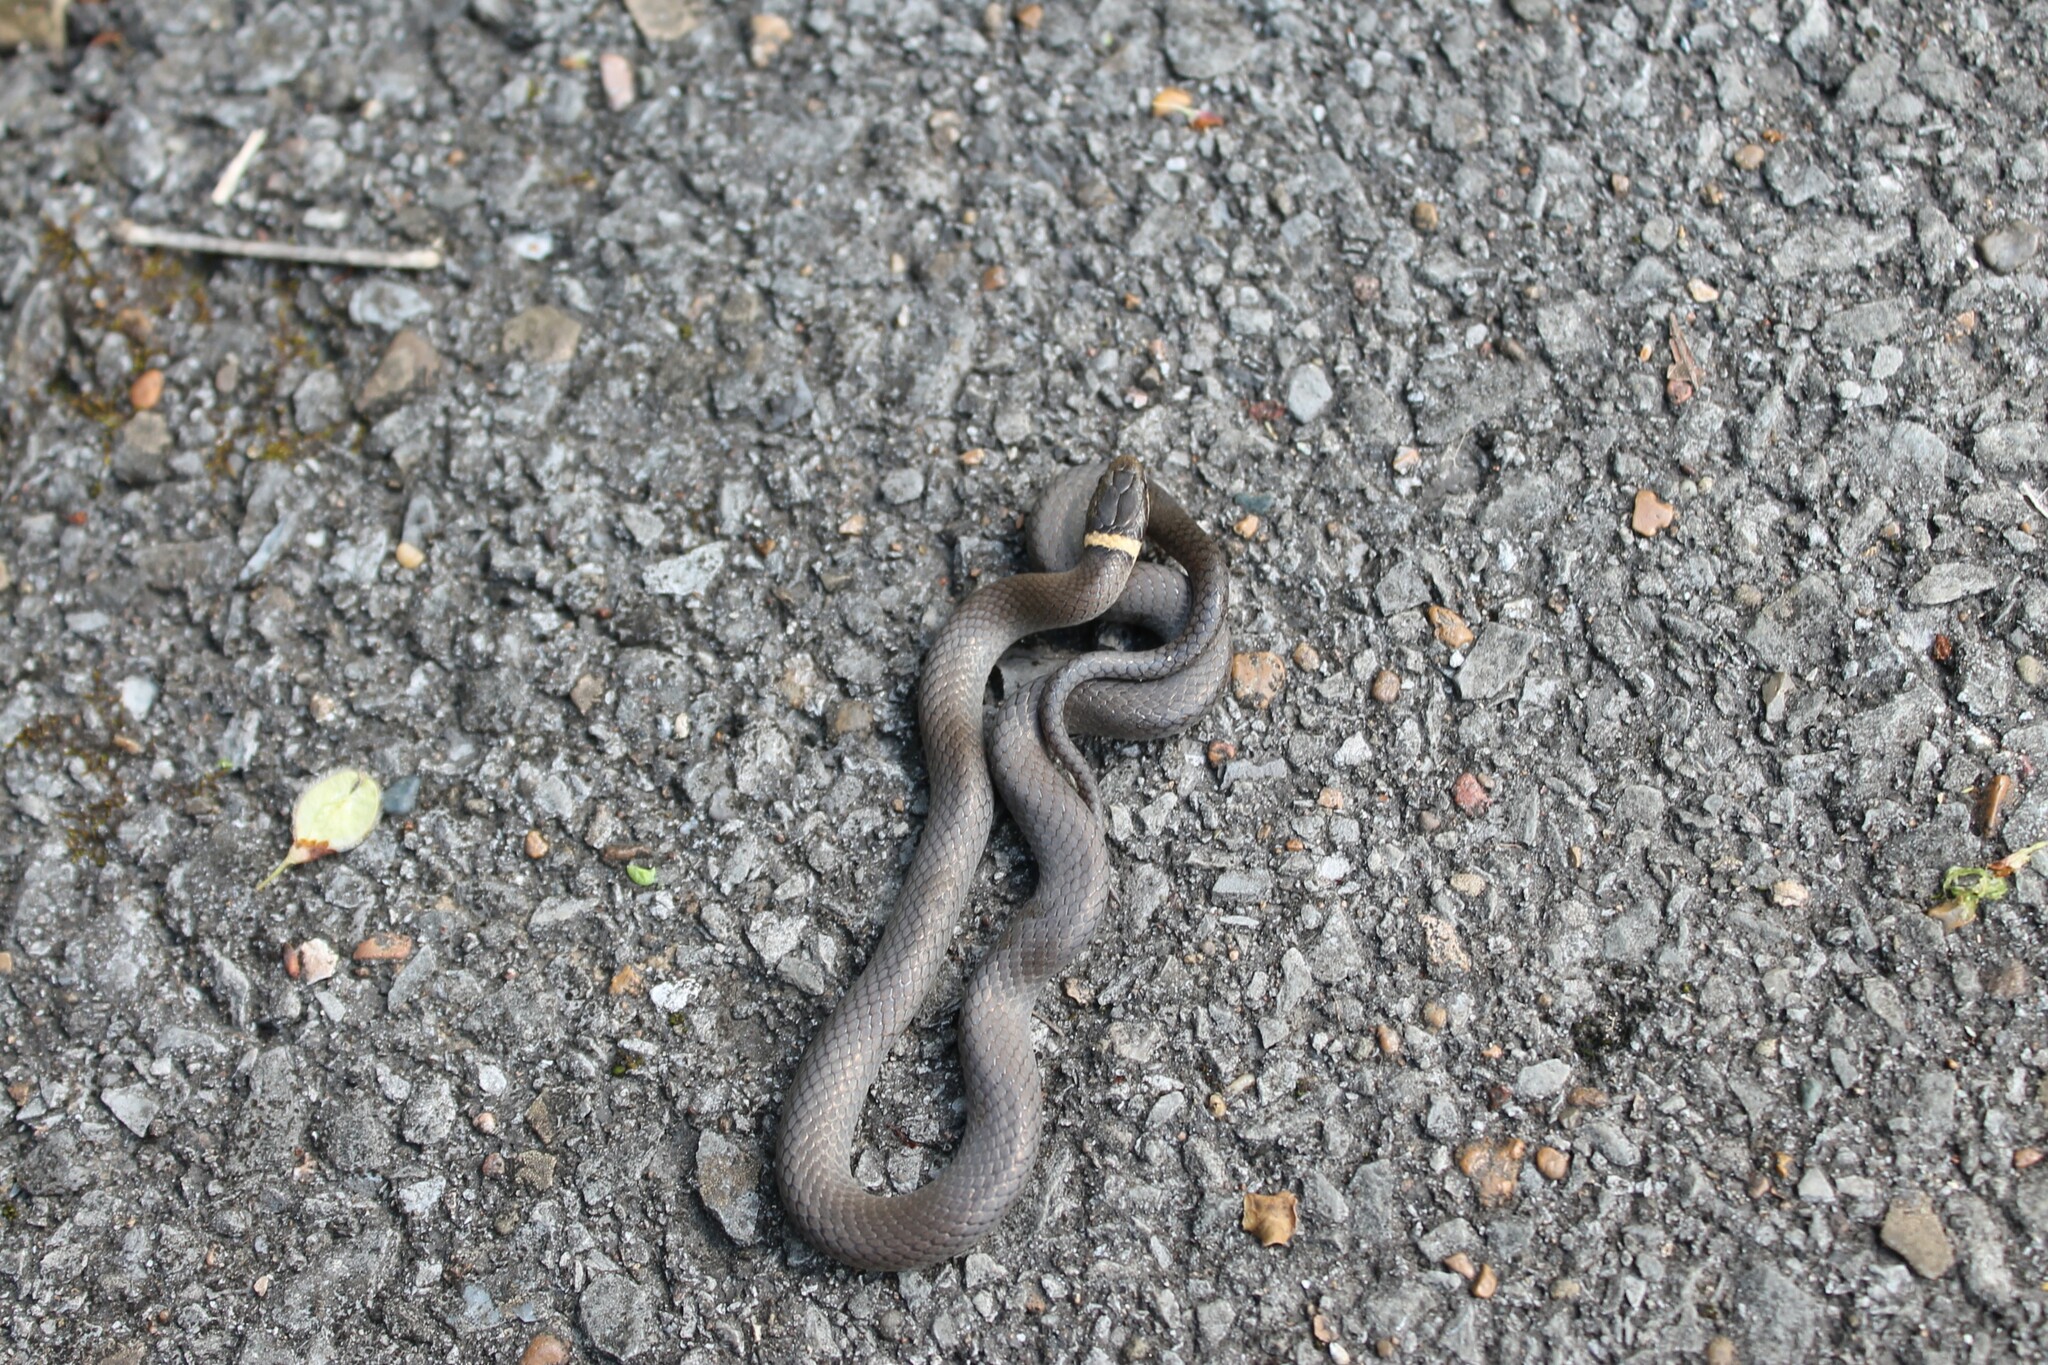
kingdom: Animalia
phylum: Chordata
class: Squamata
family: Colubridae
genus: Diadophis
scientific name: Diadophis punctatus
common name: Ringneck snake
